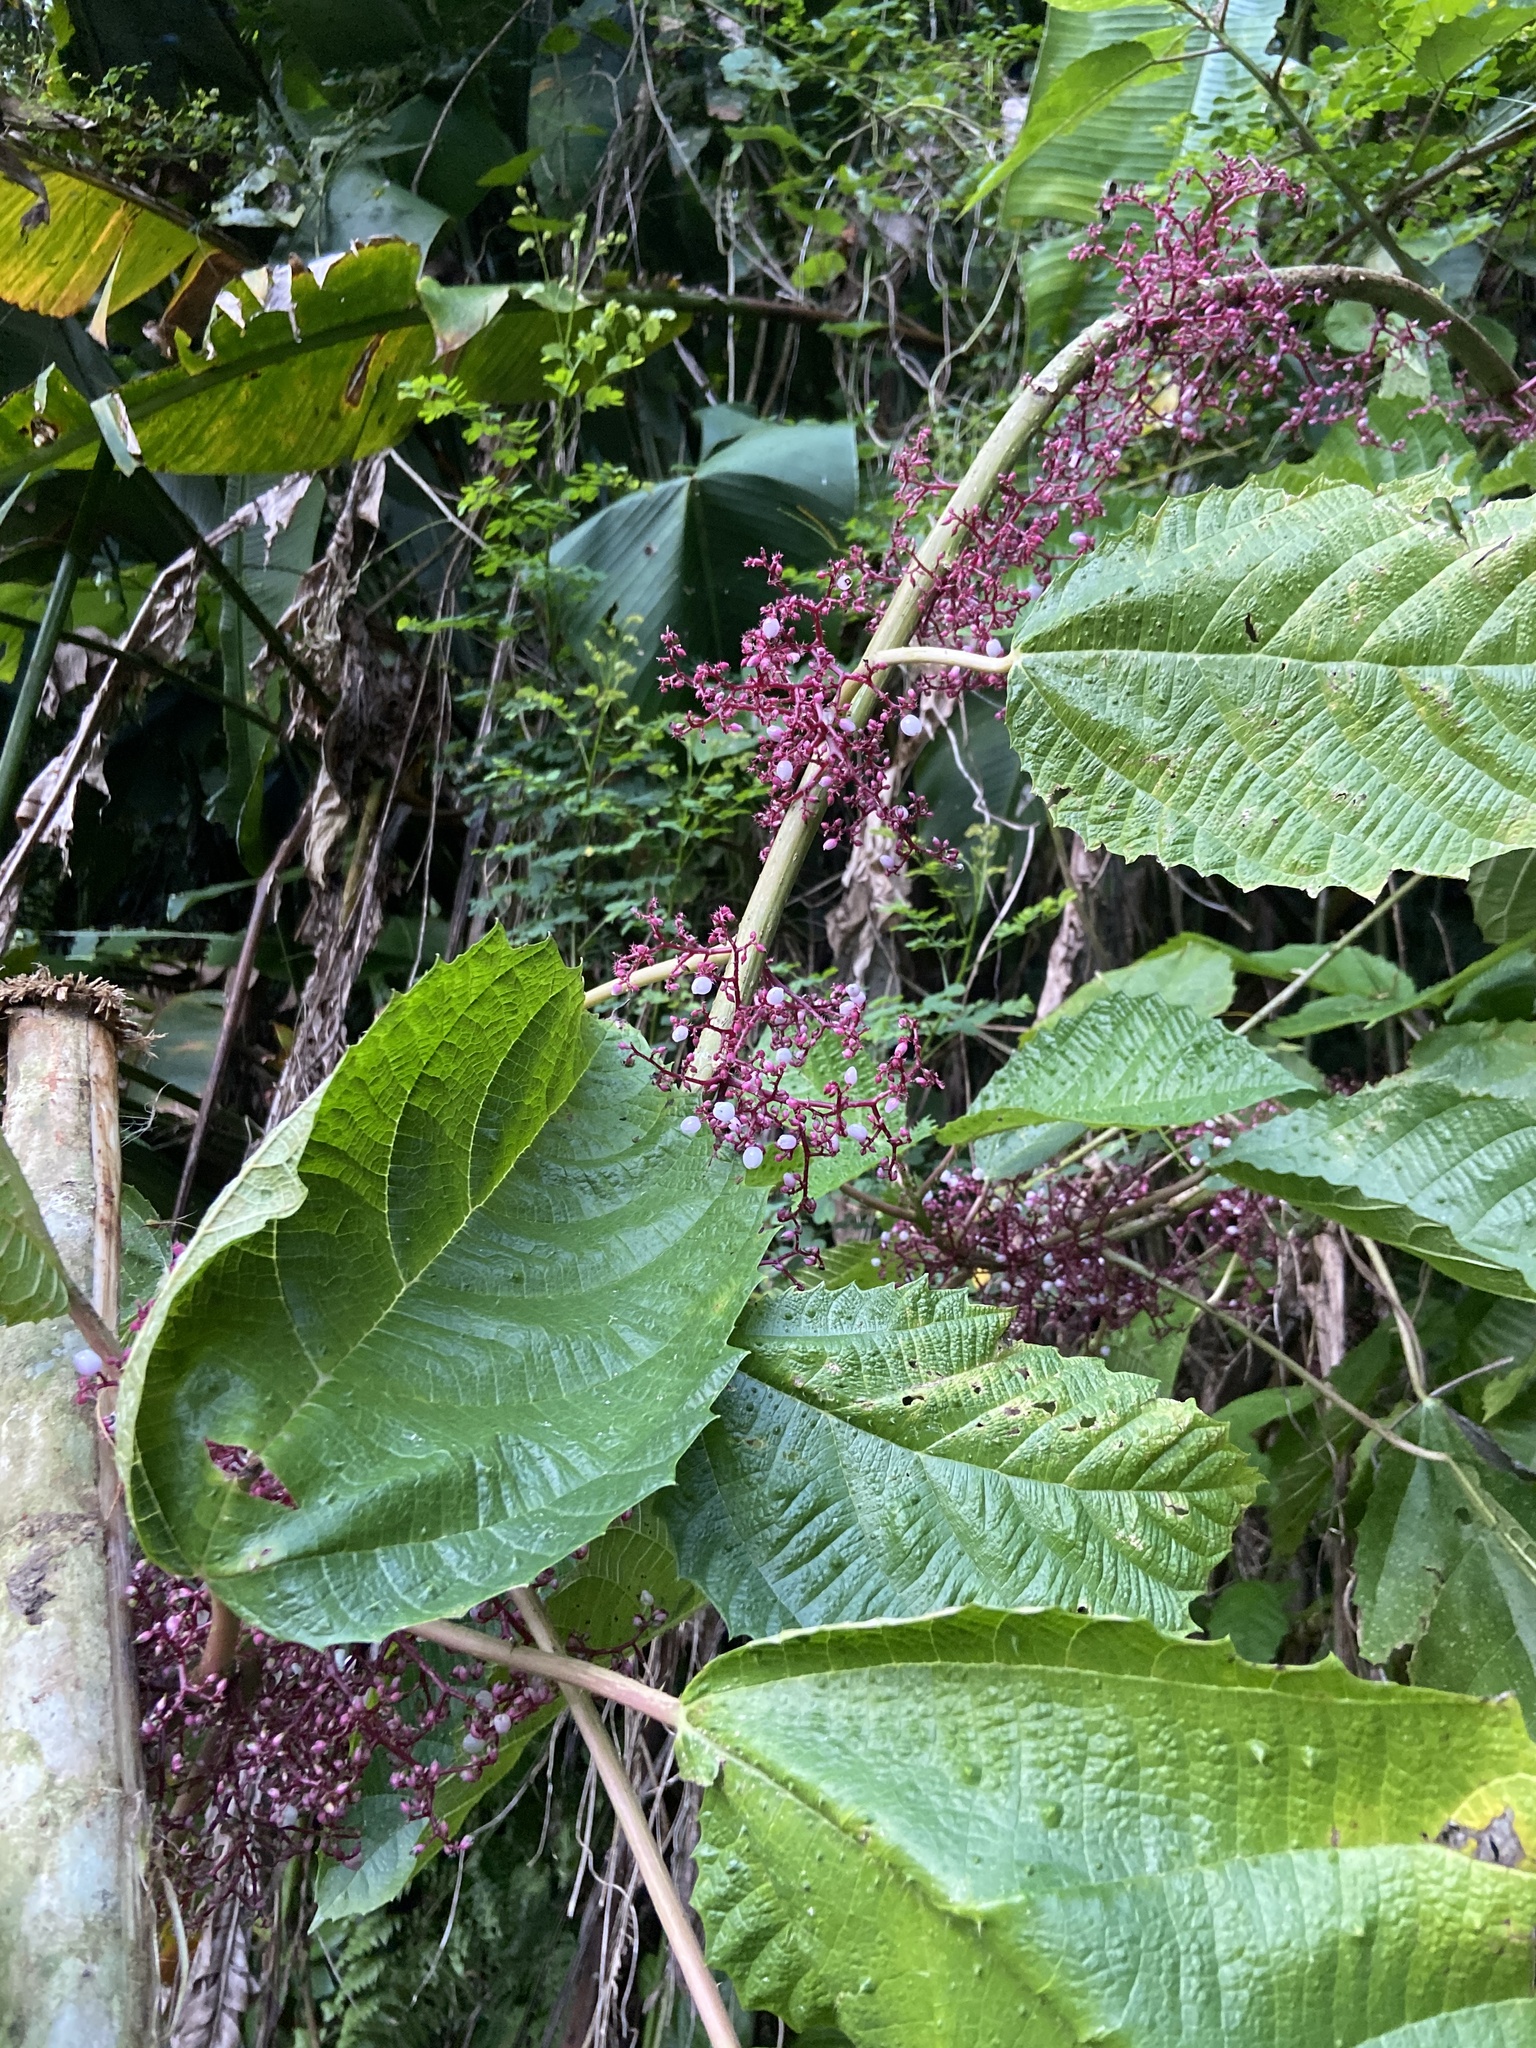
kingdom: Plantae
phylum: Tracheophyta
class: Magnoliopsida
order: Rosales
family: Urticaceae
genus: Urera
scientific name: Urera baccifera
